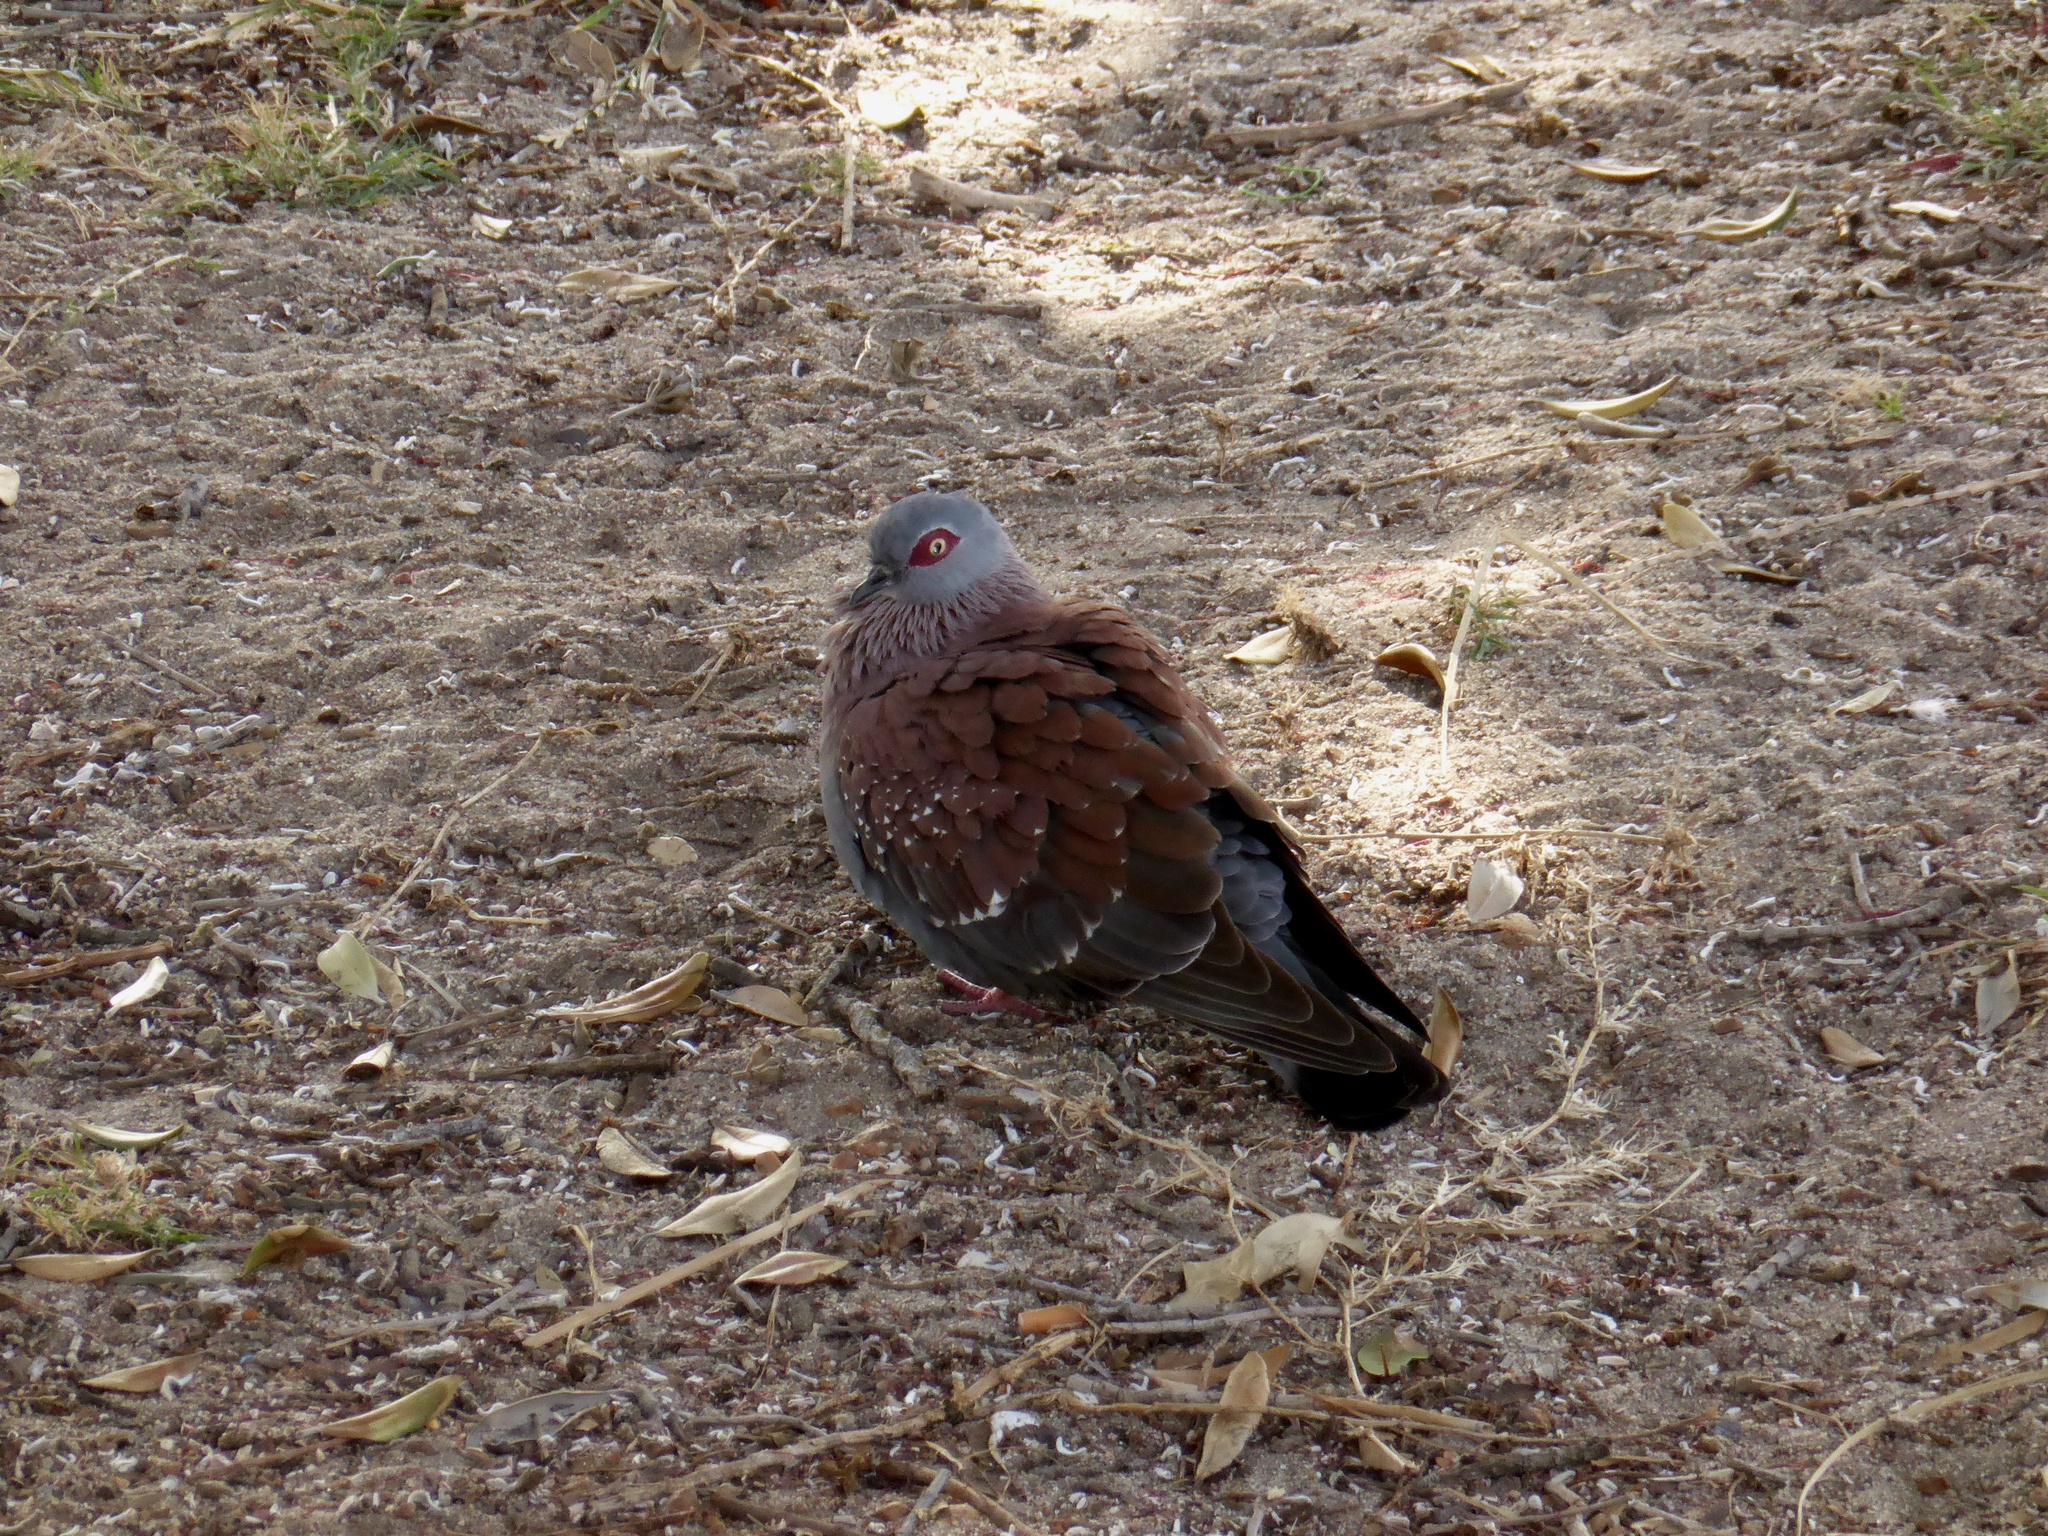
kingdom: Animalia
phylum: Chordata
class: Aves
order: Columbiformes
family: Columbidae
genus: Columba
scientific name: Columba guinea
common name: Speckled pigeon
